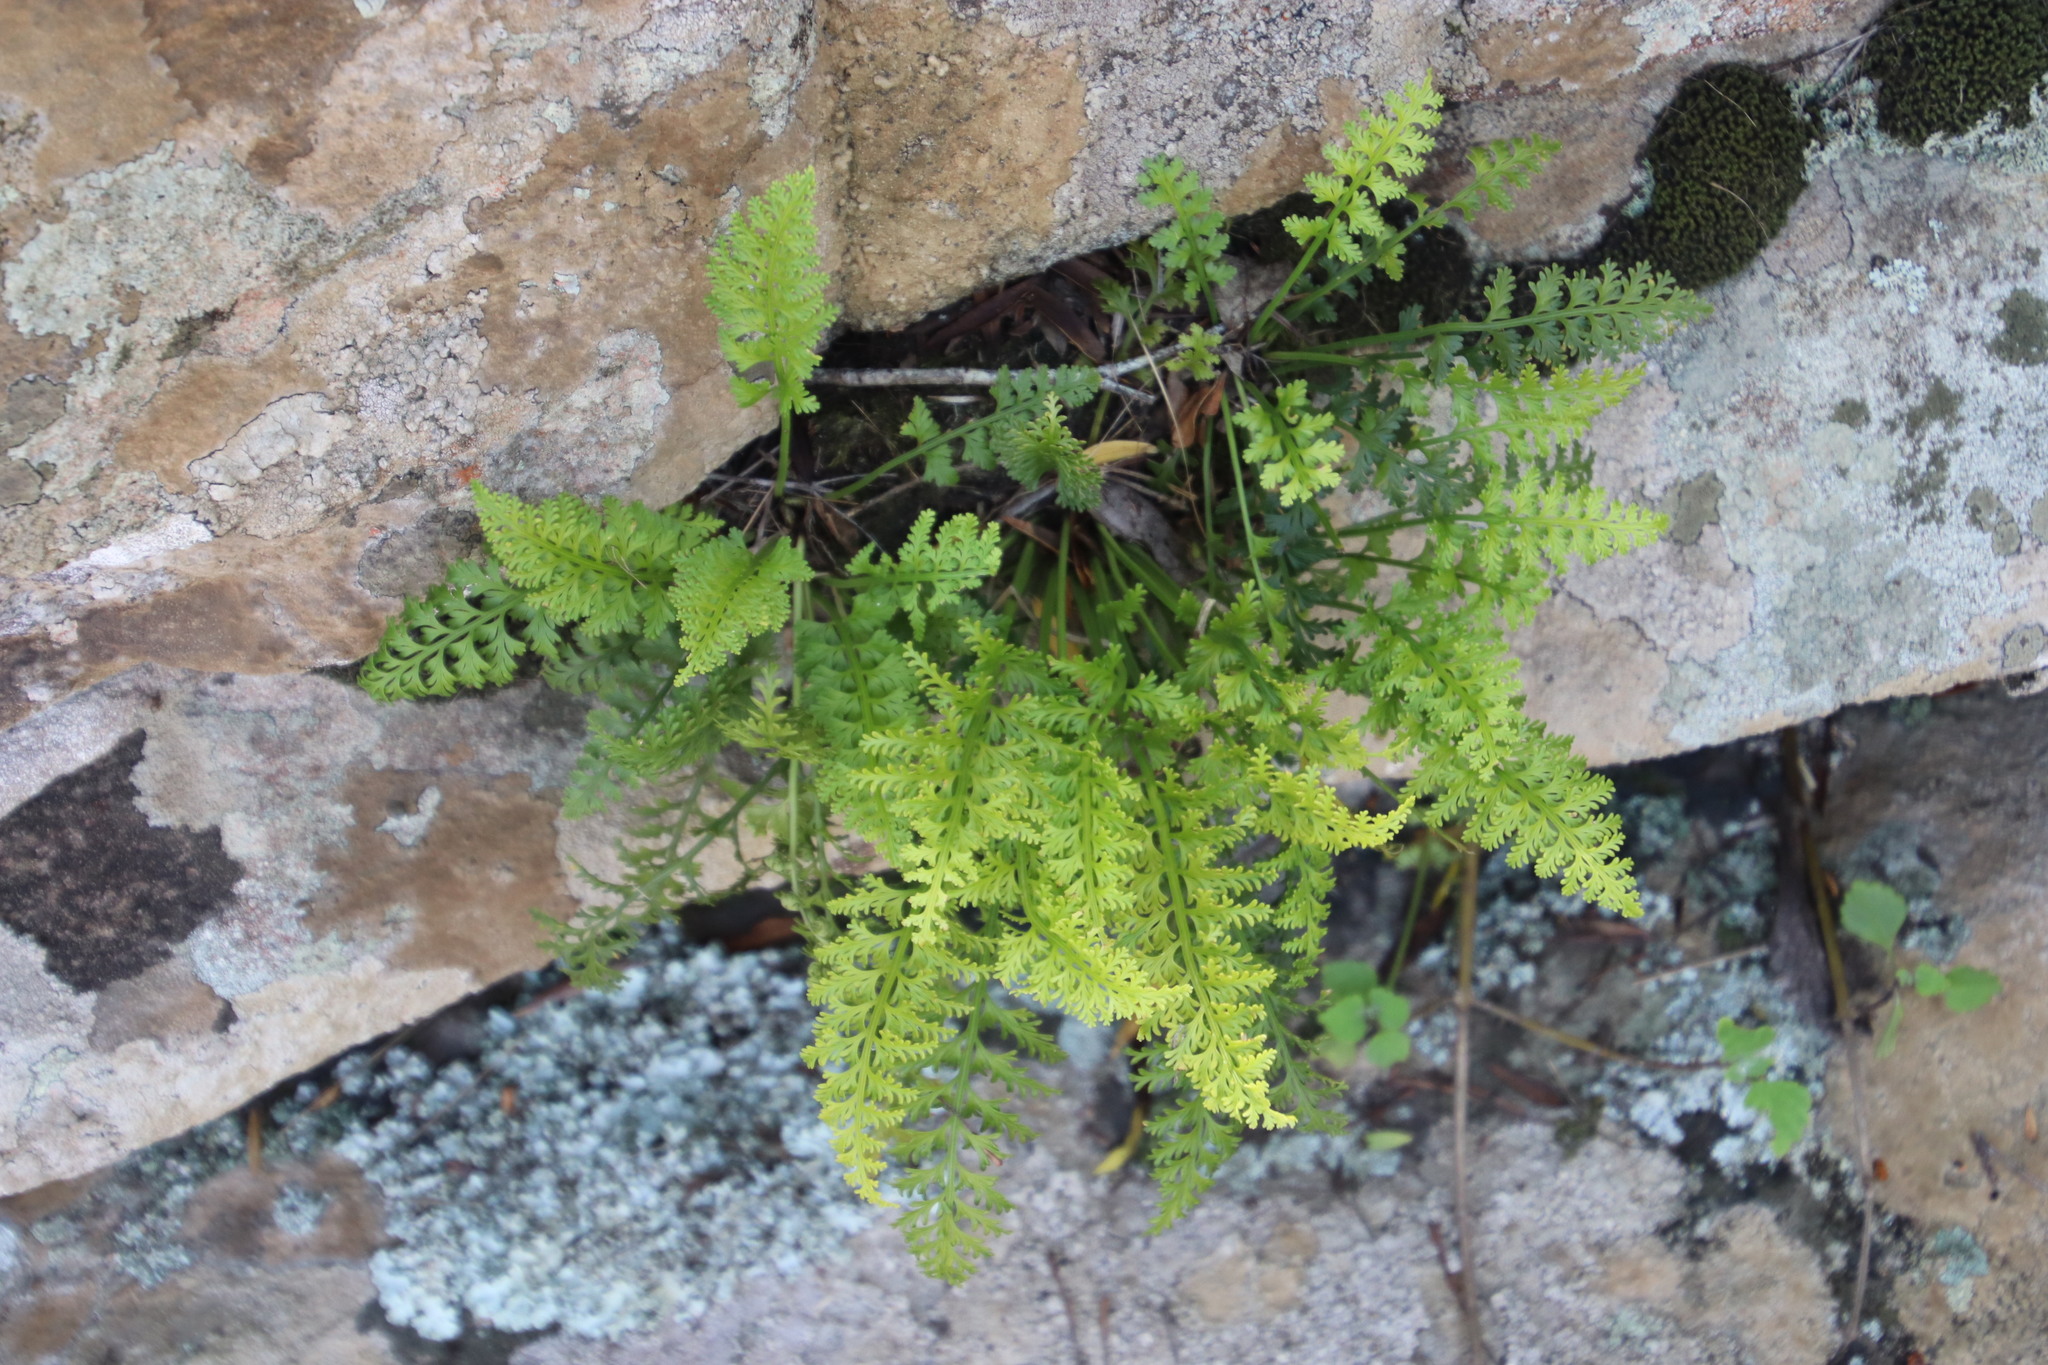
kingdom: Plantae
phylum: Tracheophyta
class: Polypodiopsida
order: Polypodiales
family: Aspleniaceae
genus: Asplenium
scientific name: Asplenium rutifolium
